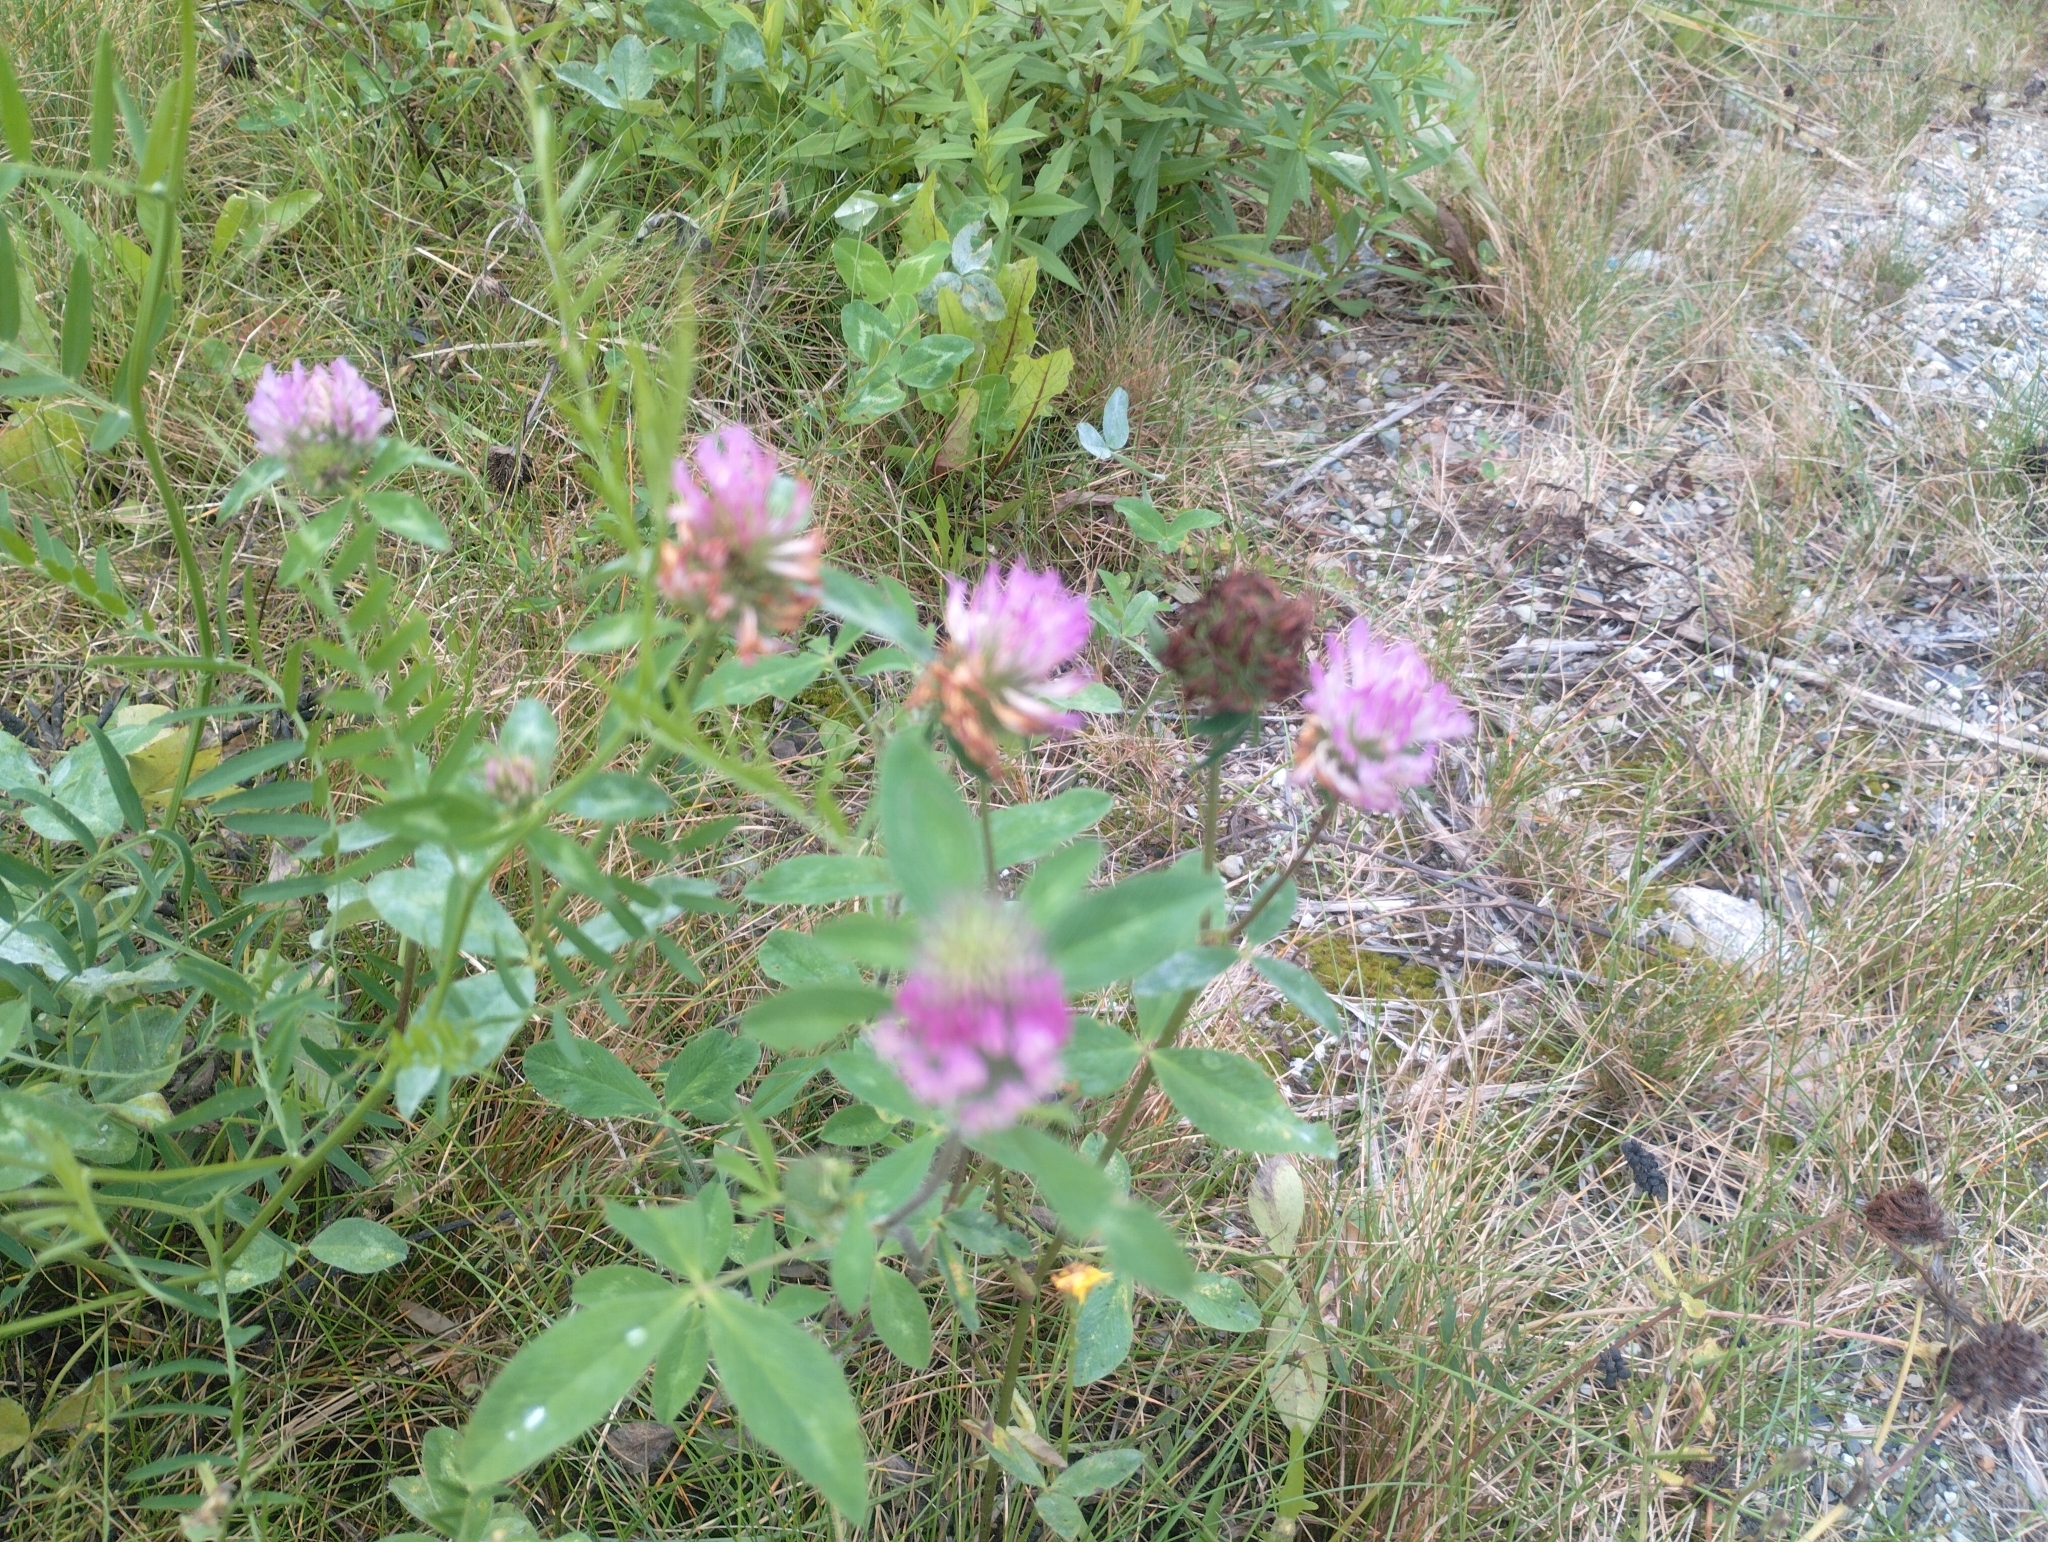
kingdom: Plantae
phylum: Tracheophyta
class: Magnoliopsida
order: Fabales
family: Fabaceae
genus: Trifolium
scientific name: Trifolium pratense
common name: Red clover
